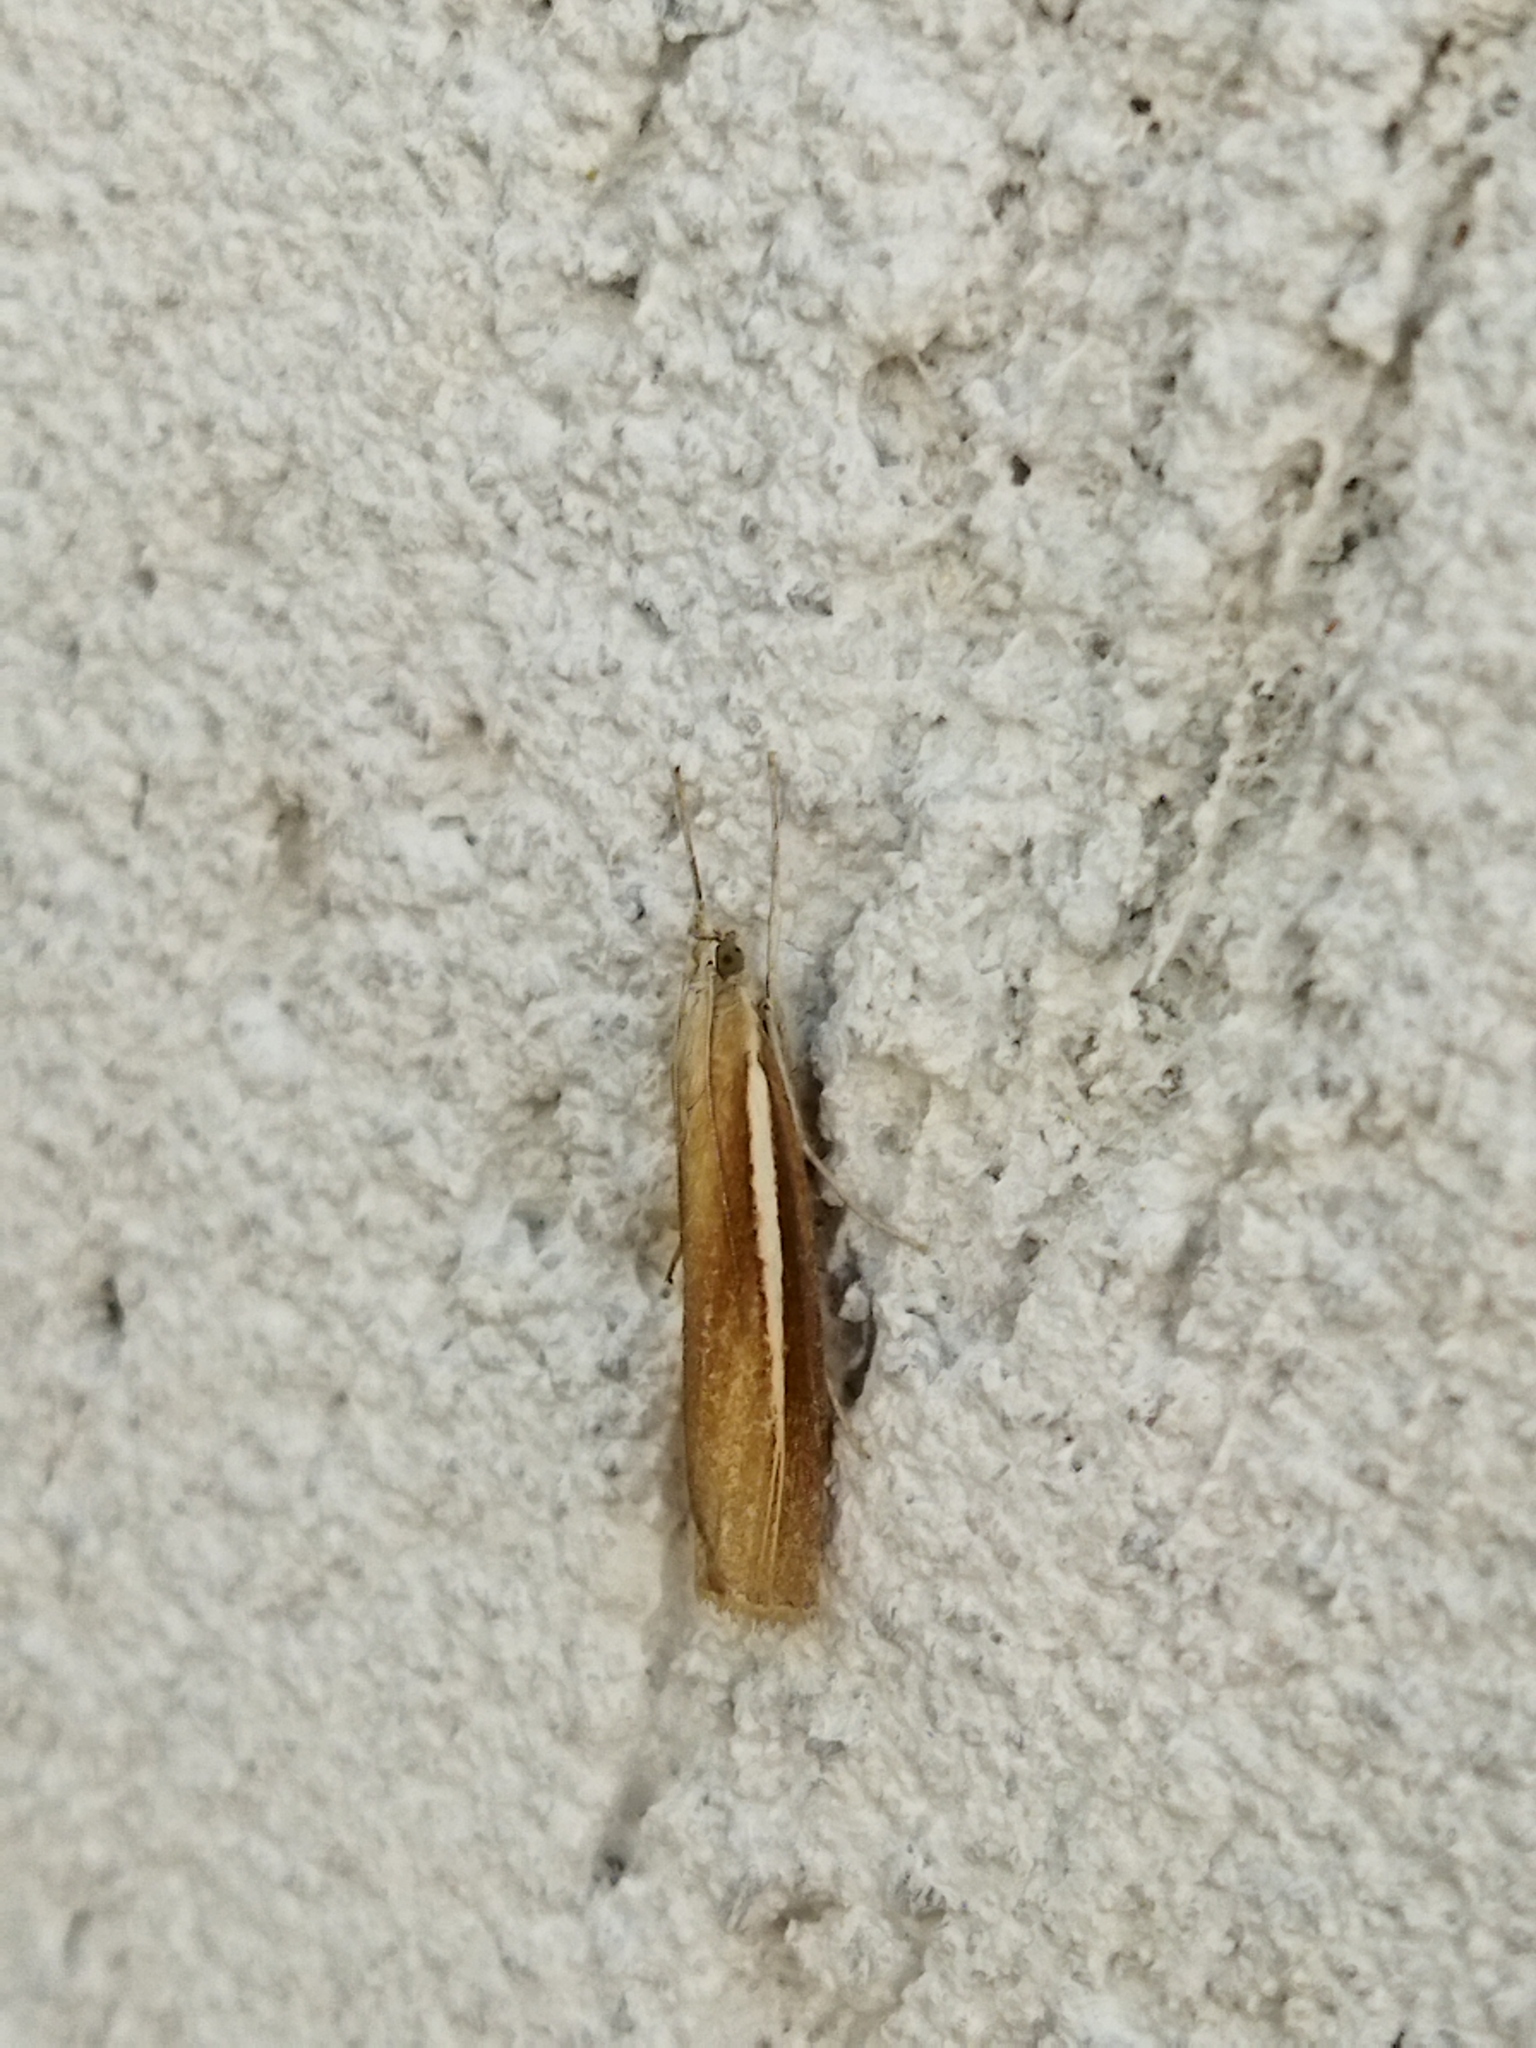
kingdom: Animalia
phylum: Arthropoda
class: Insecta
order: Lepidoptera
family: Crambidae
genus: Agriphila
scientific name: Agriphila selasella
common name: Pale-streak grass-veneer
